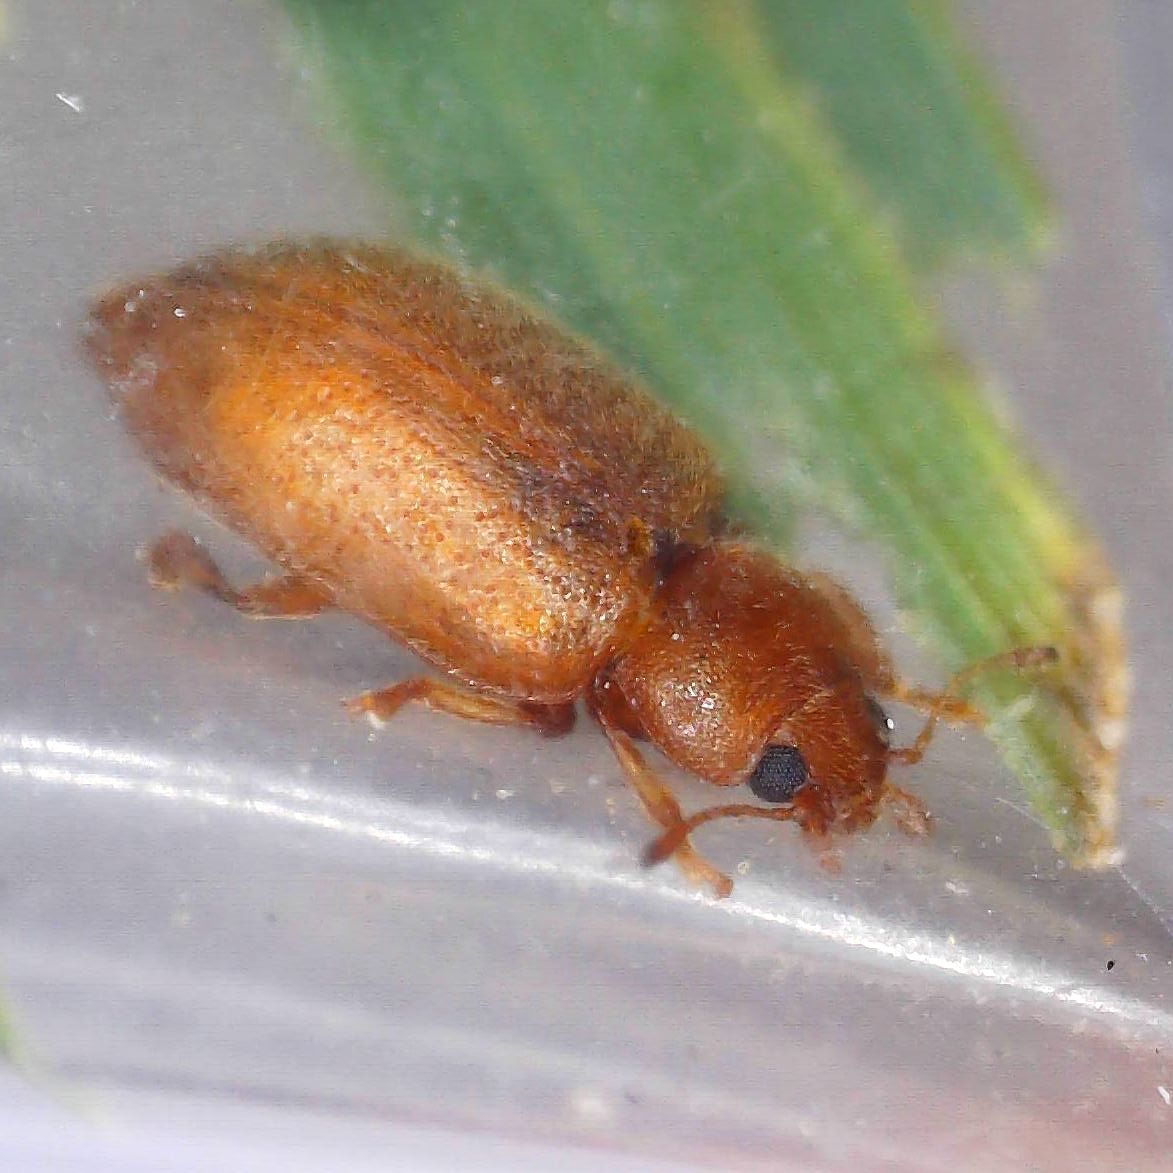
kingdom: Animalia
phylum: Arthropoda
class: Insecta
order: Coleoptera
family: Coccinellidae
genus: Coccidula
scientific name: Coccidula rufa
